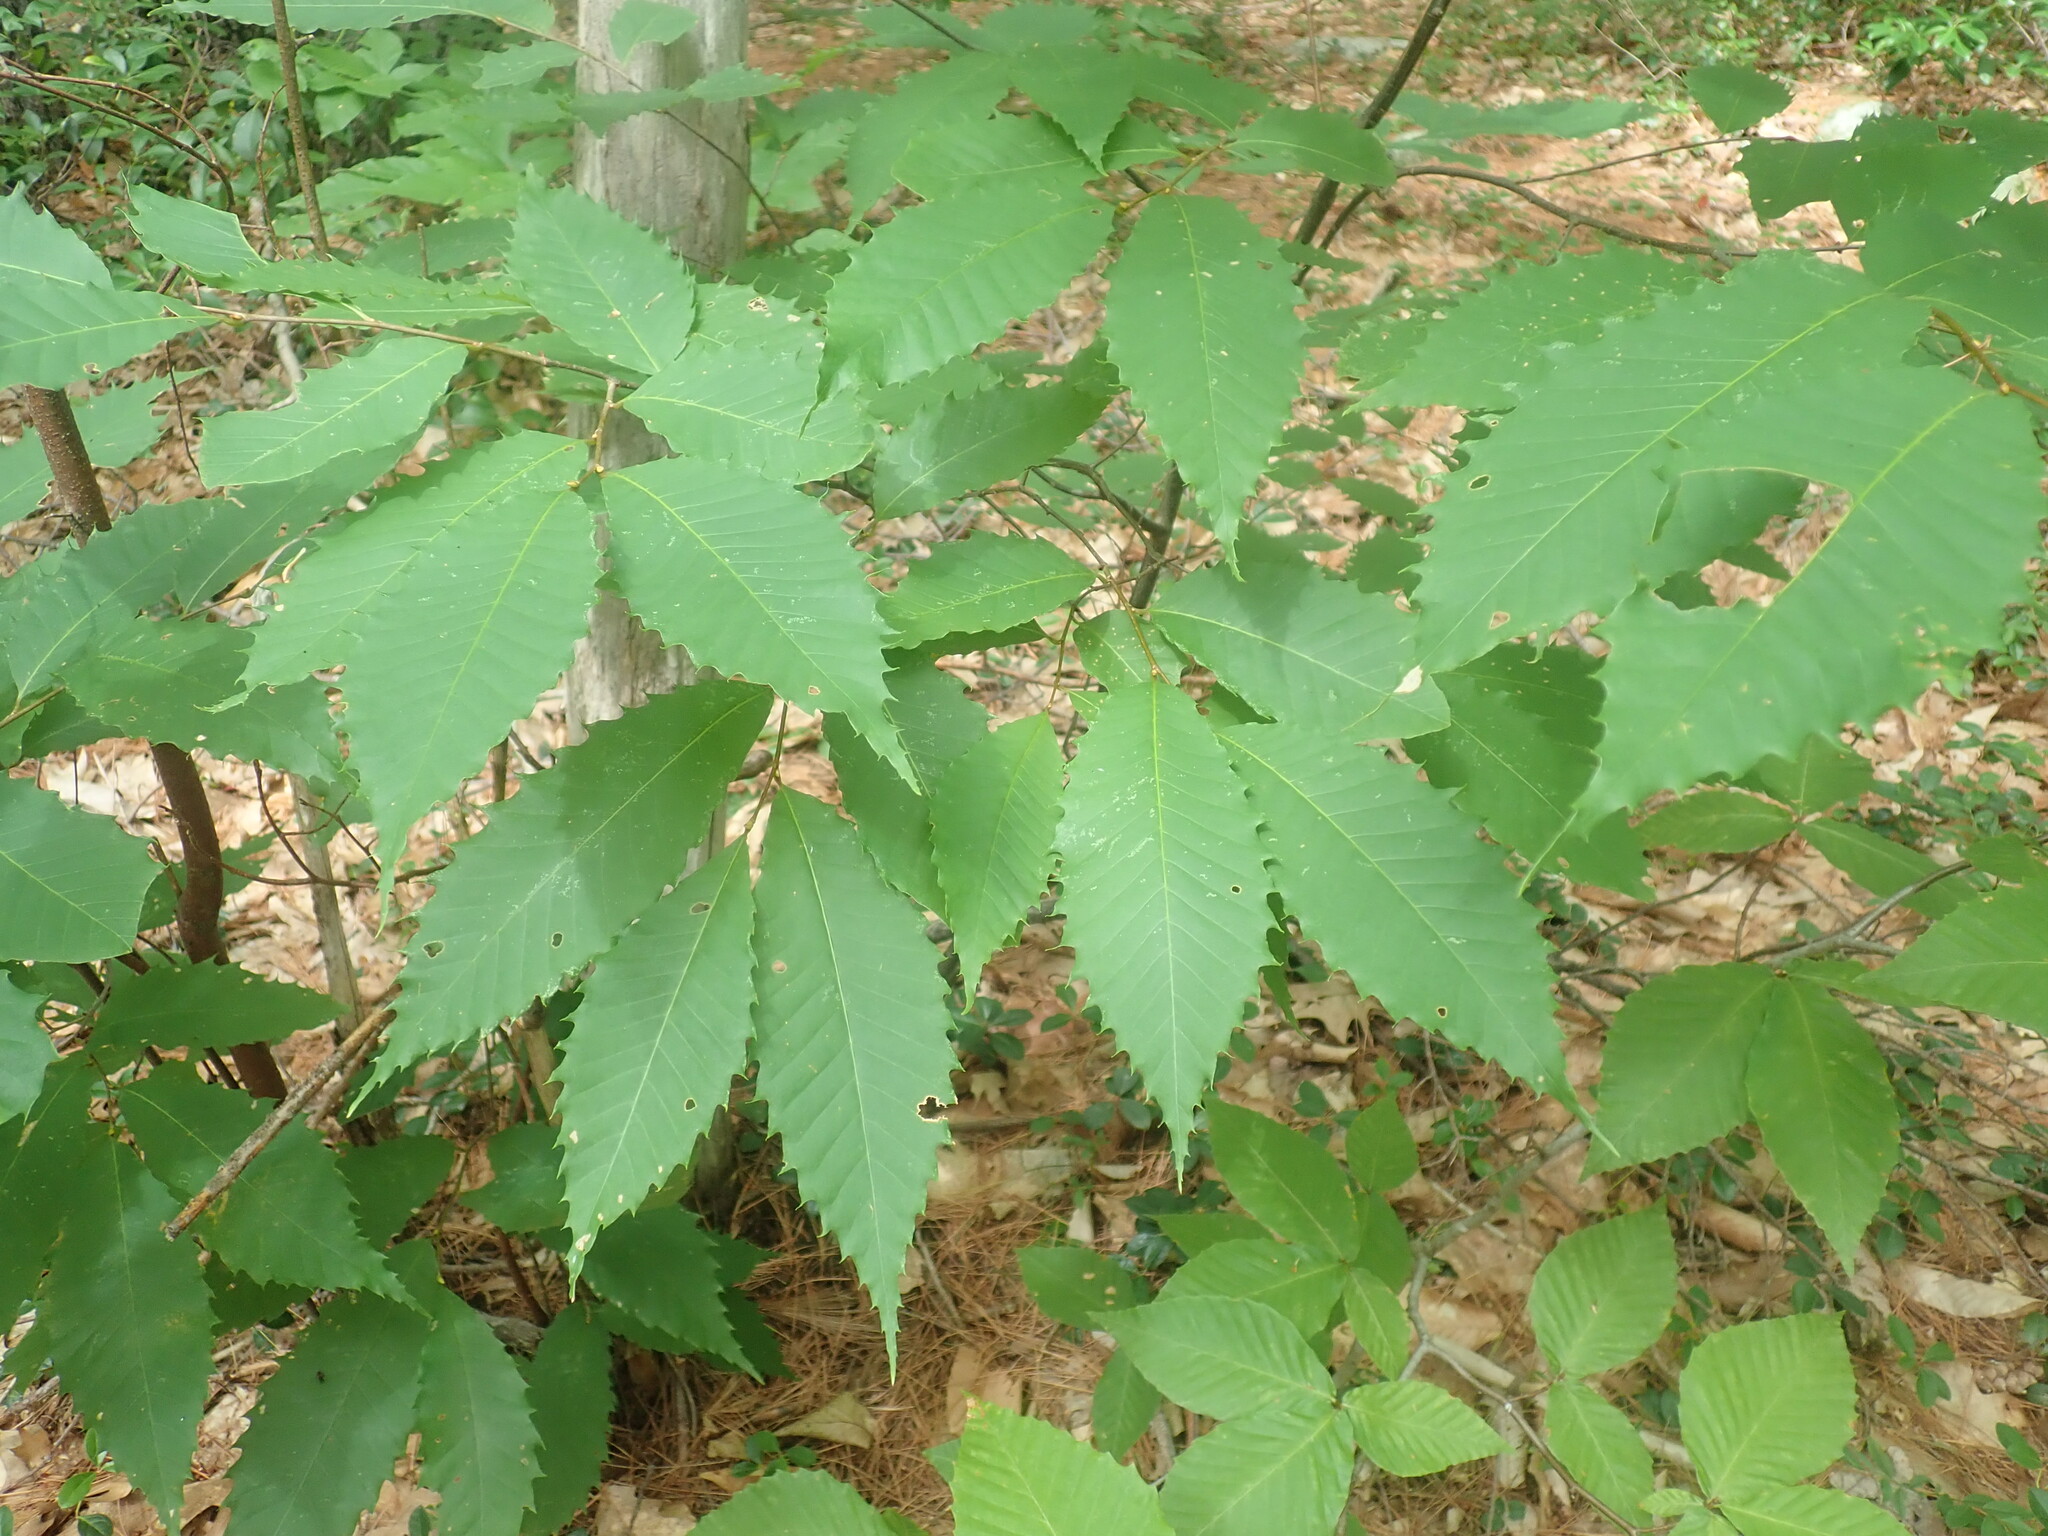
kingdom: Plantae
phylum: Tracheophyta
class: Magnoliopsida
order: Fagales
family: Fagaceae
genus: Castanea
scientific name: Castanea dentata
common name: American chestnut
